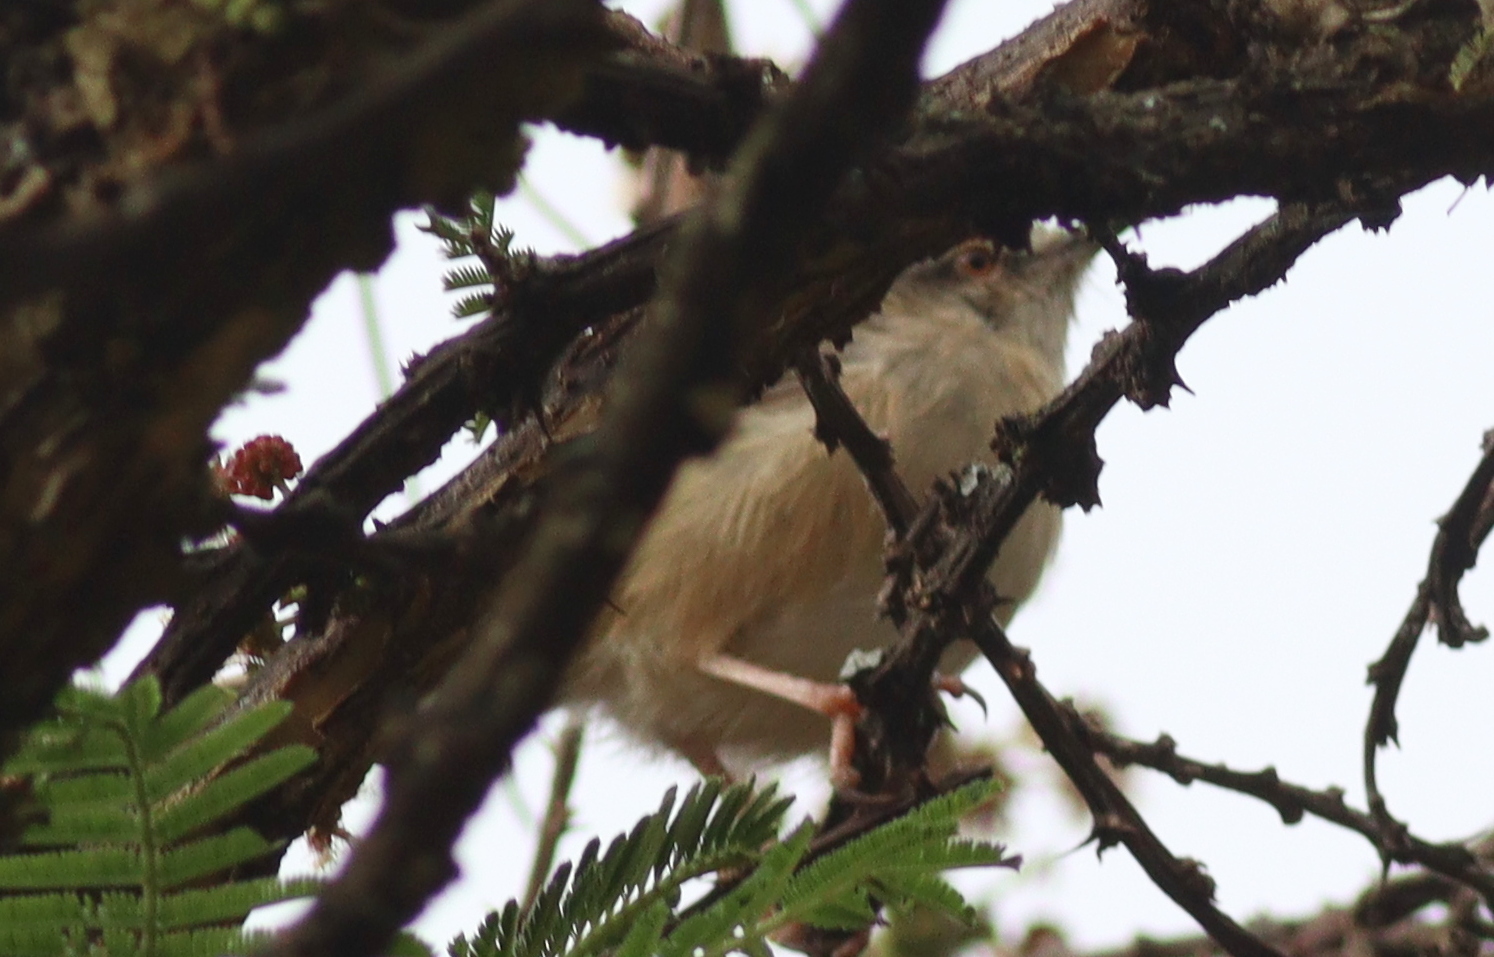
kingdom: Animalia
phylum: Chordata
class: Aves
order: Passeriformes
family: Cisticolidae
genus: Prinia
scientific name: Prinia subflava
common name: Tawny-flanked prinia
